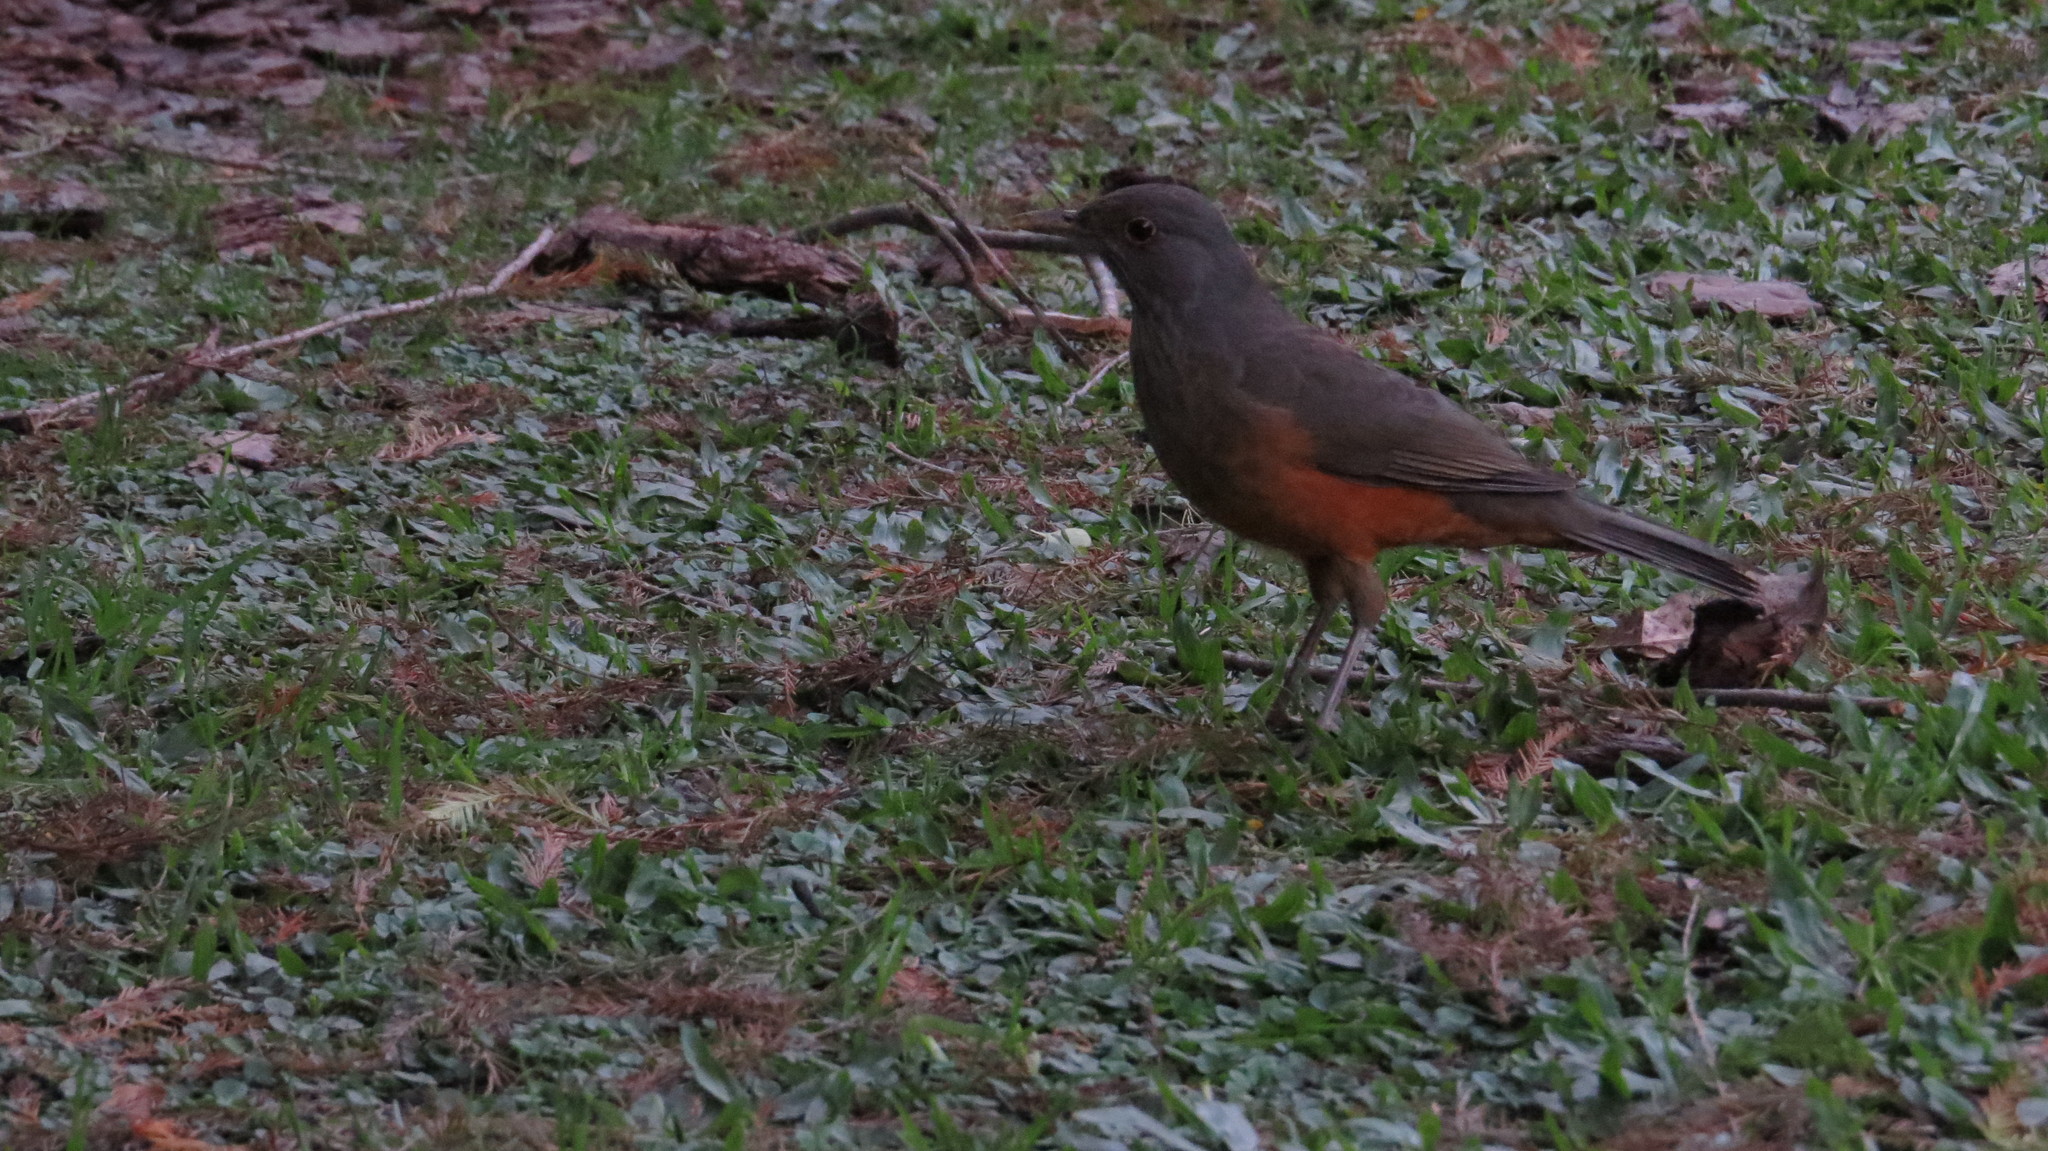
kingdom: Animalia
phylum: Chordata
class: Aves
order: Passeriformes
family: Turdidae
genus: Turdus
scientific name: Turdus rufiventris
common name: Rufous-bellied thrush
